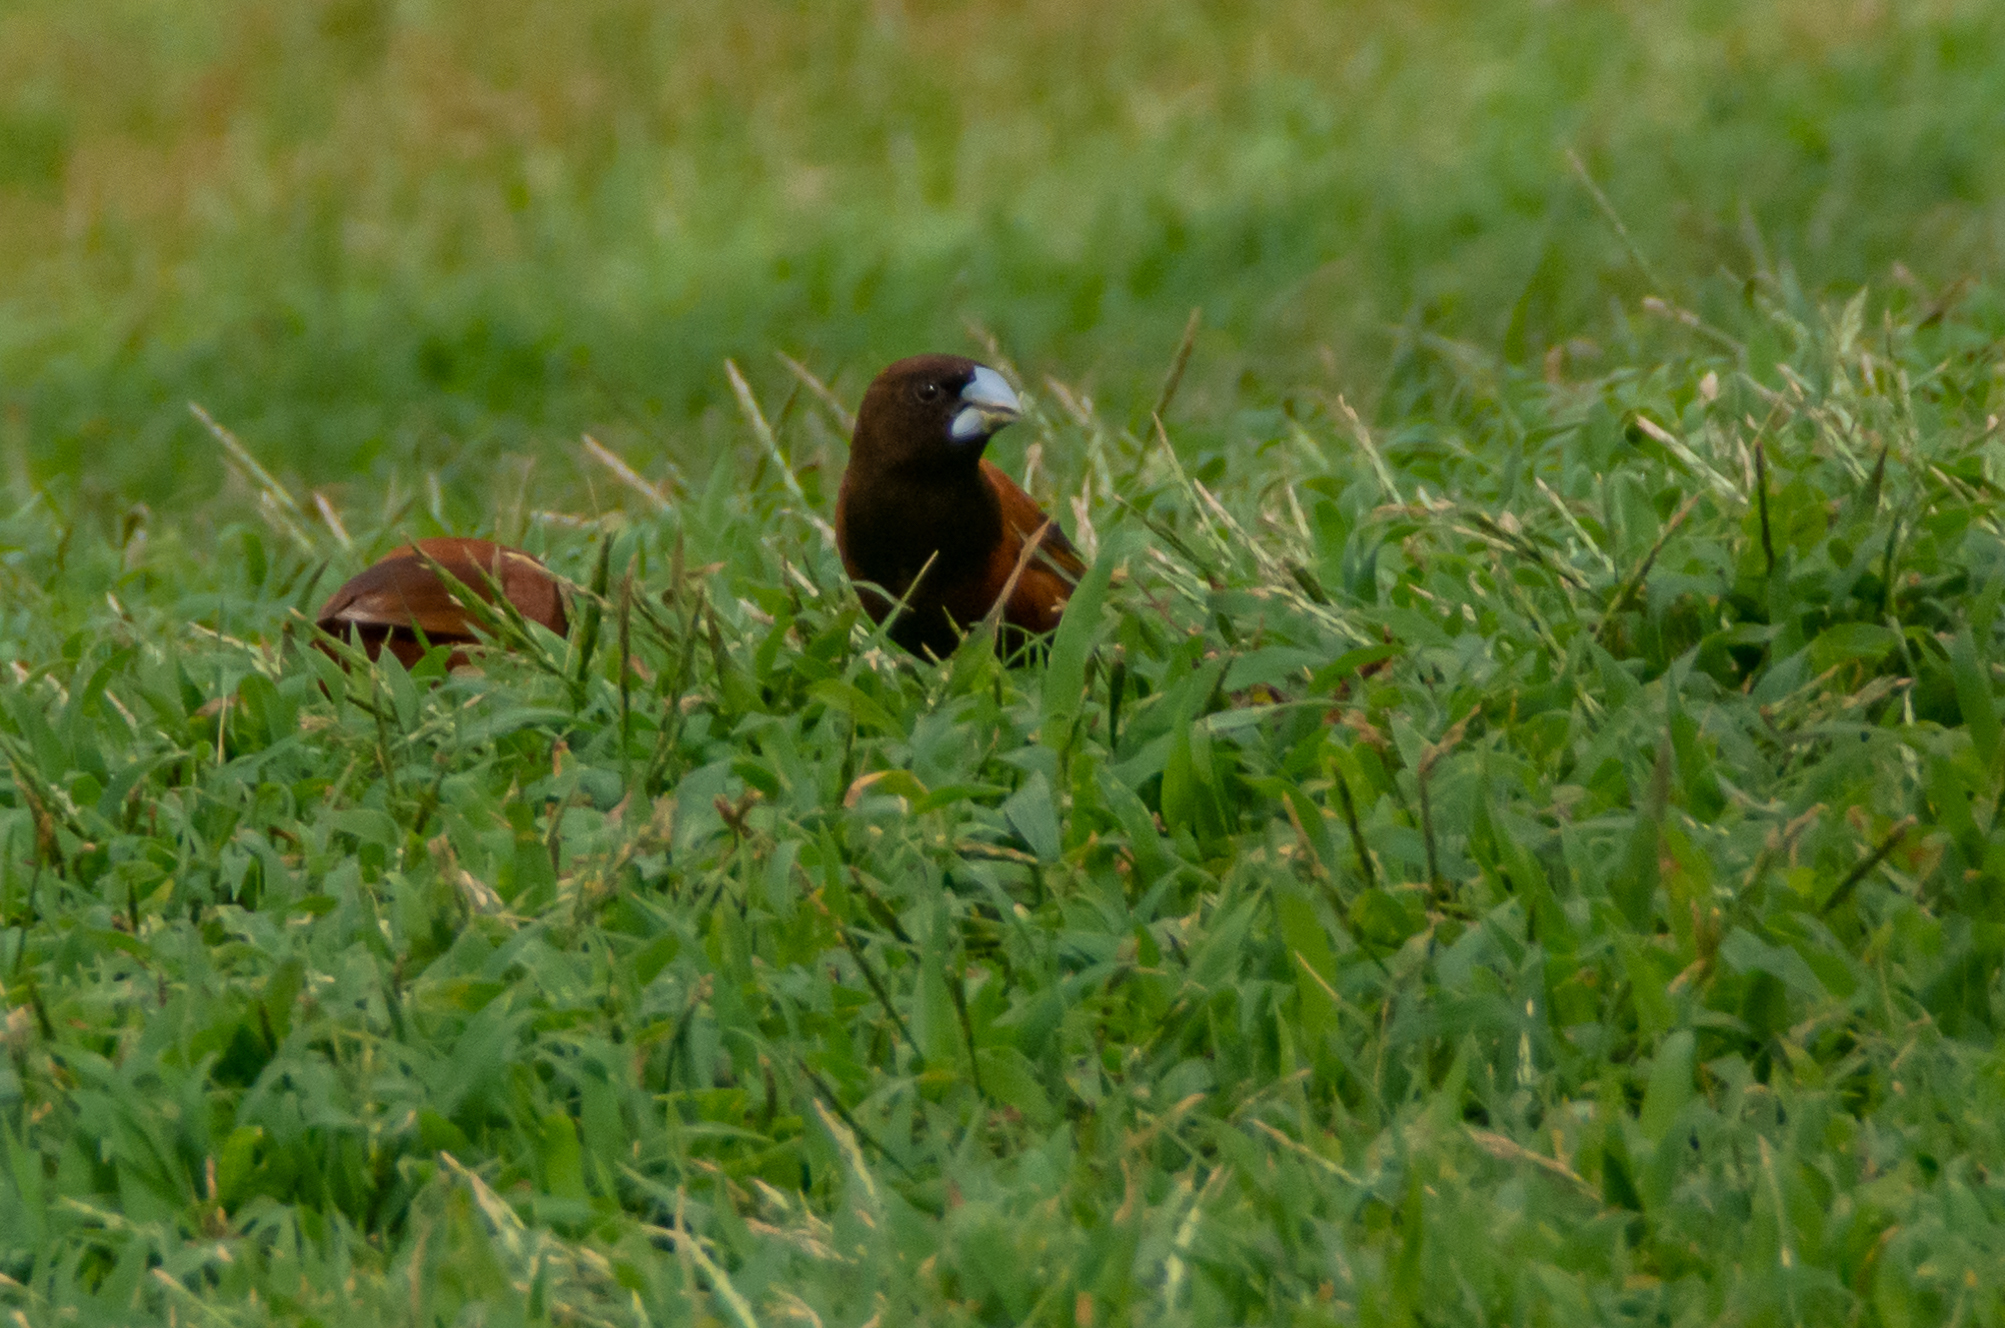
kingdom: Animalia
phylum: Chordata
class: Aves
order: Passeriformes
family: Estrildidae
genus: Lonchura
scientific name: Lonchura atricapilla
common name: Chestnut munia
